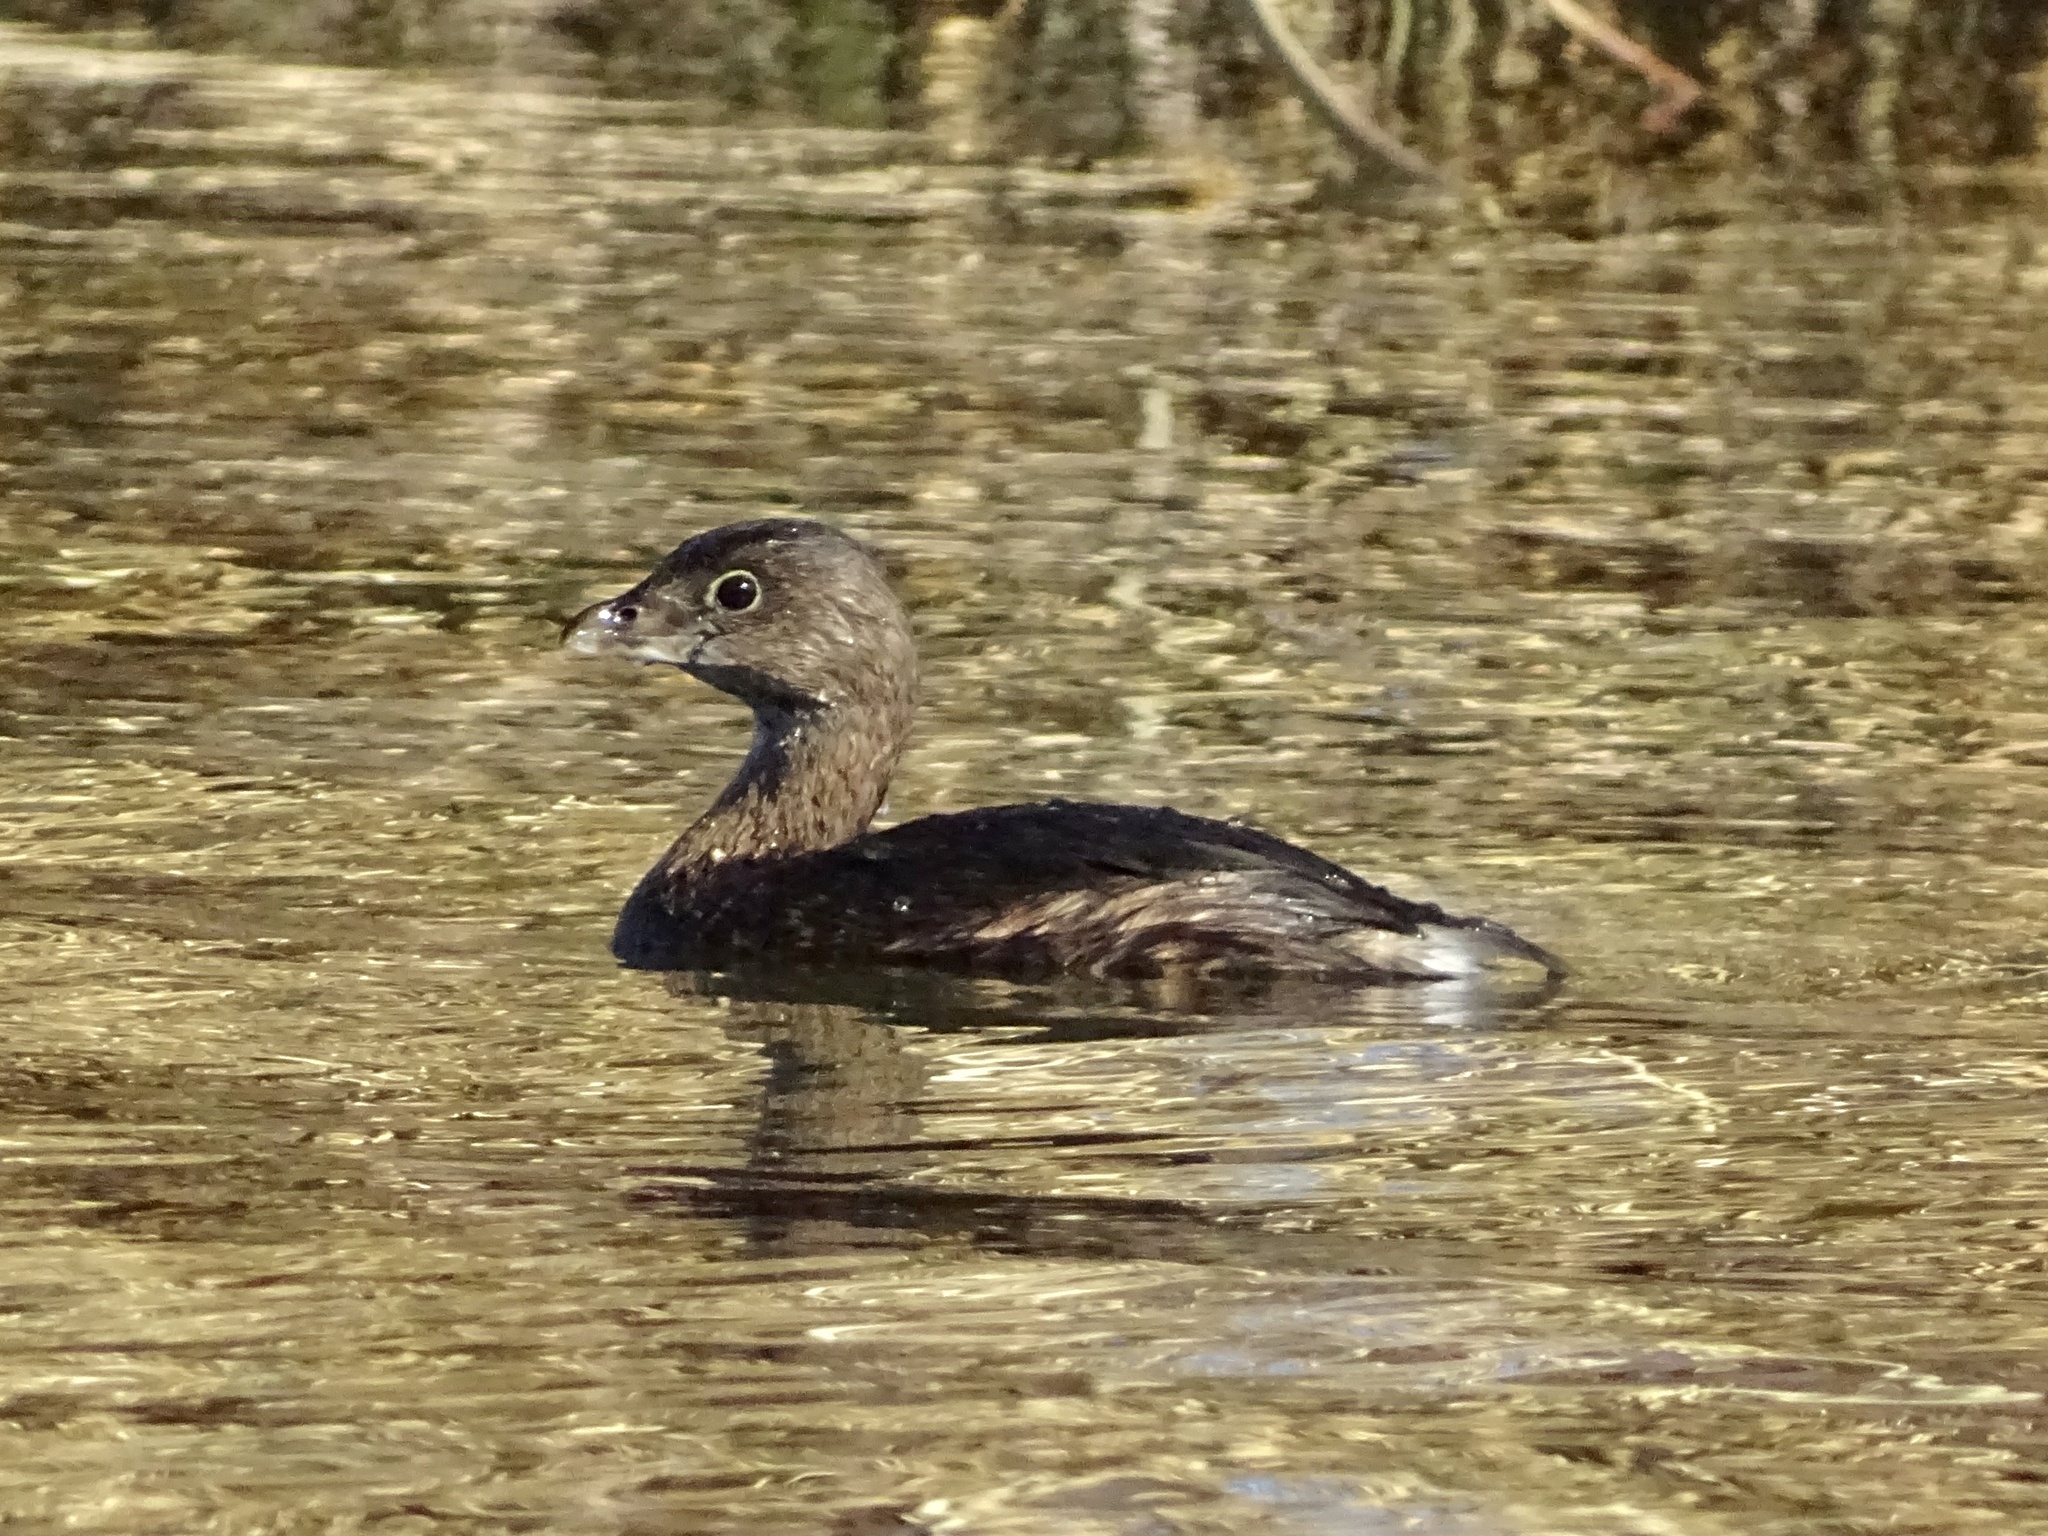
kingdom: Animalia
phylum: Chordata
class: Aves
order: Podicipediformes
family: Podicipedidae
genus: Podilymbus
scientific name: Podilymbus podiceps
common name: Pied-billed grebe
